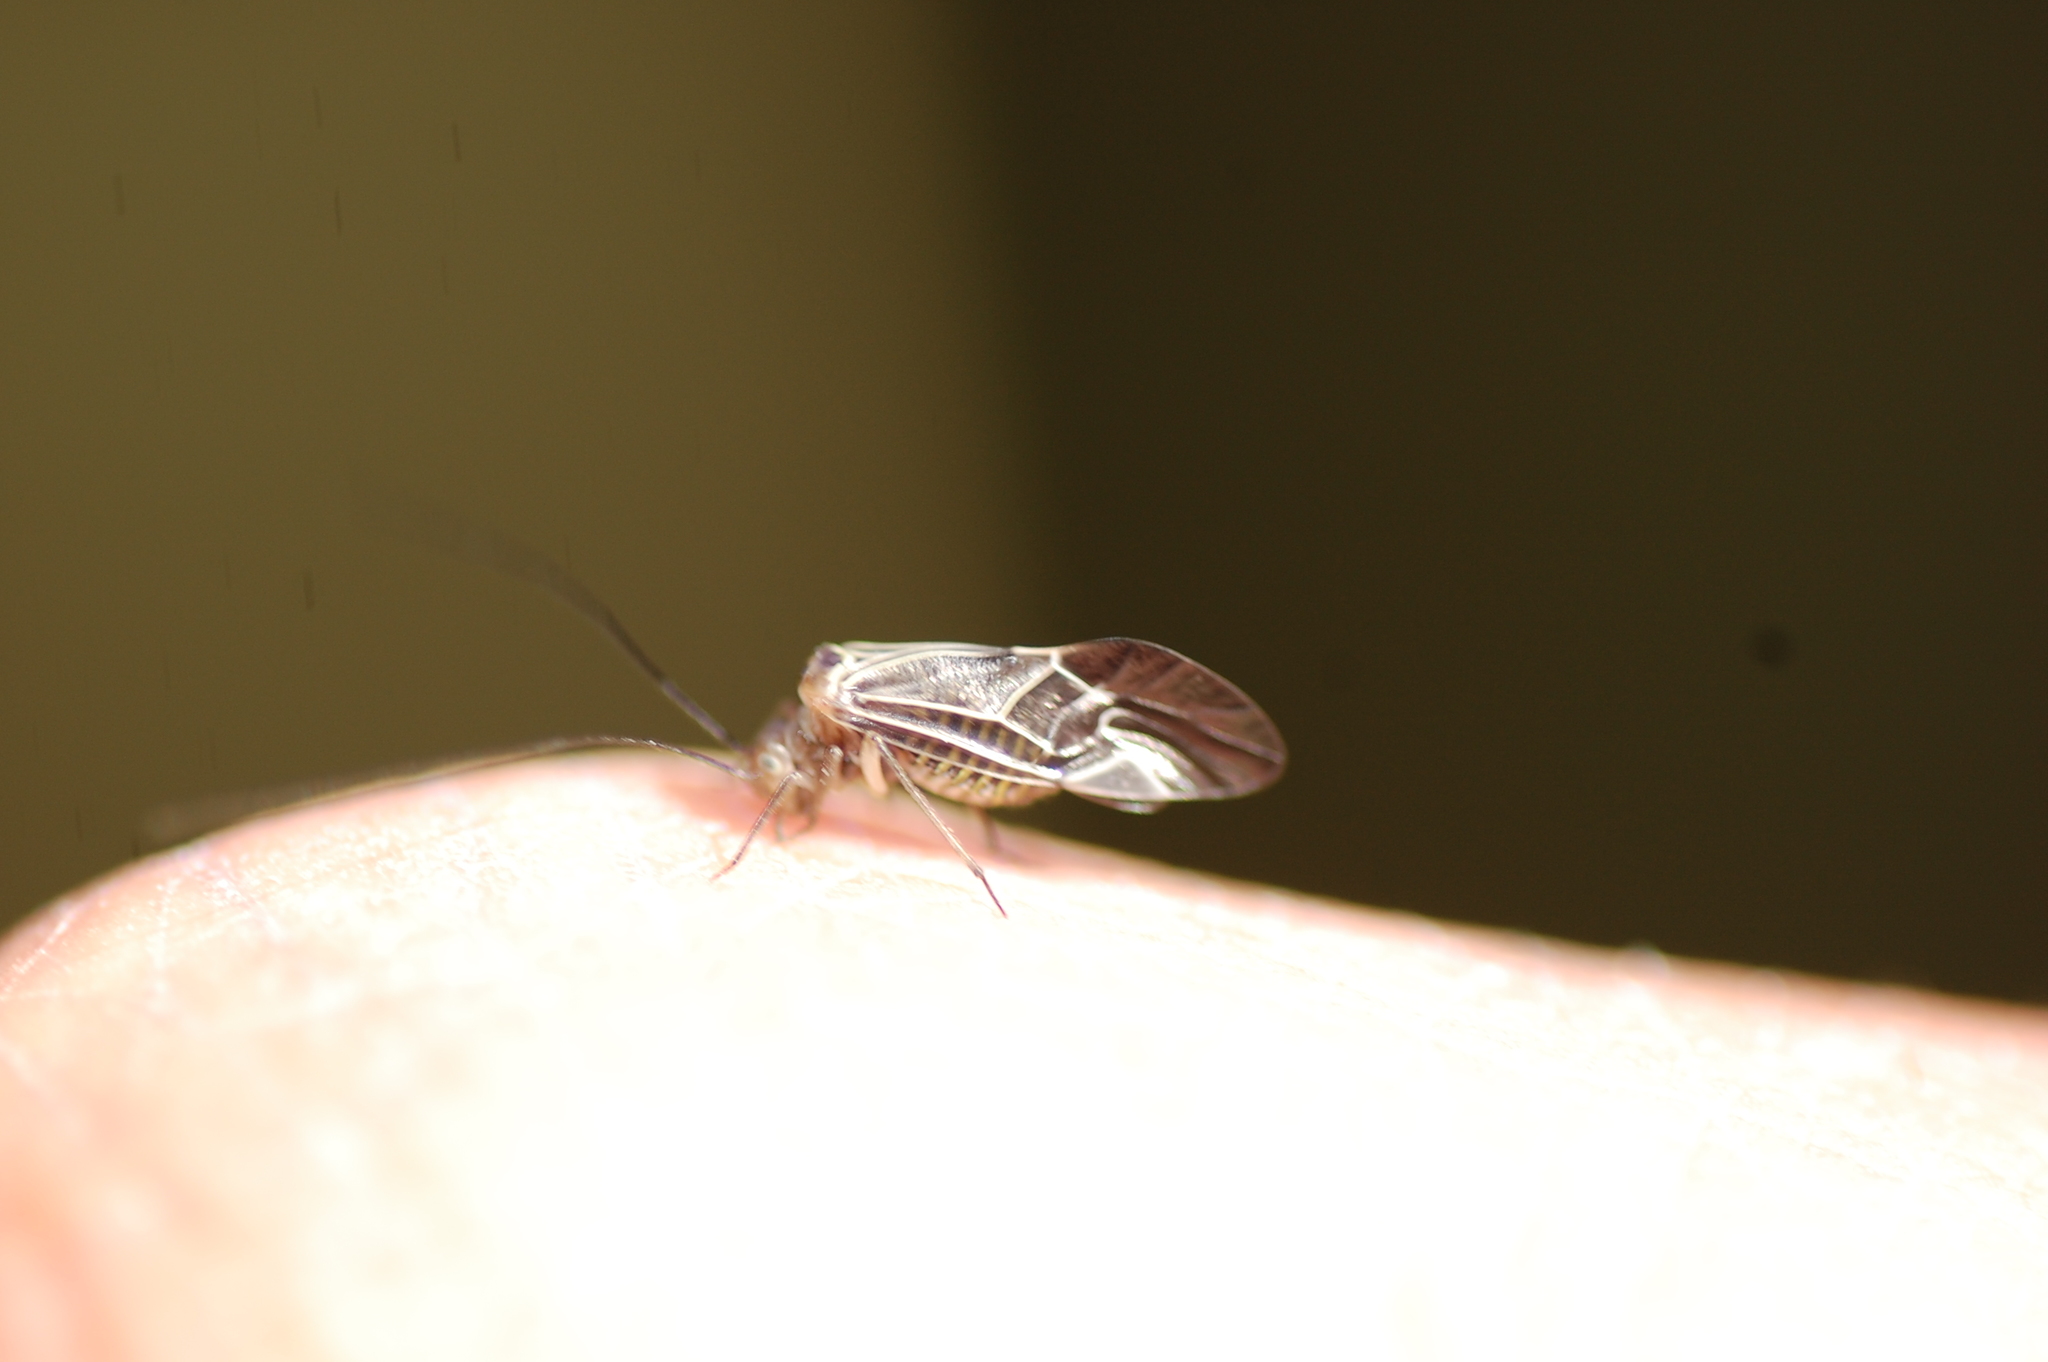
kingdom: Animalia
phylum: Arthropoda
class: Insecta
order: Psocodea
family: Psocidae
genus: Cerastipsocus
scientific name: Cerastipsocus venosus
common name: Tree cattle
